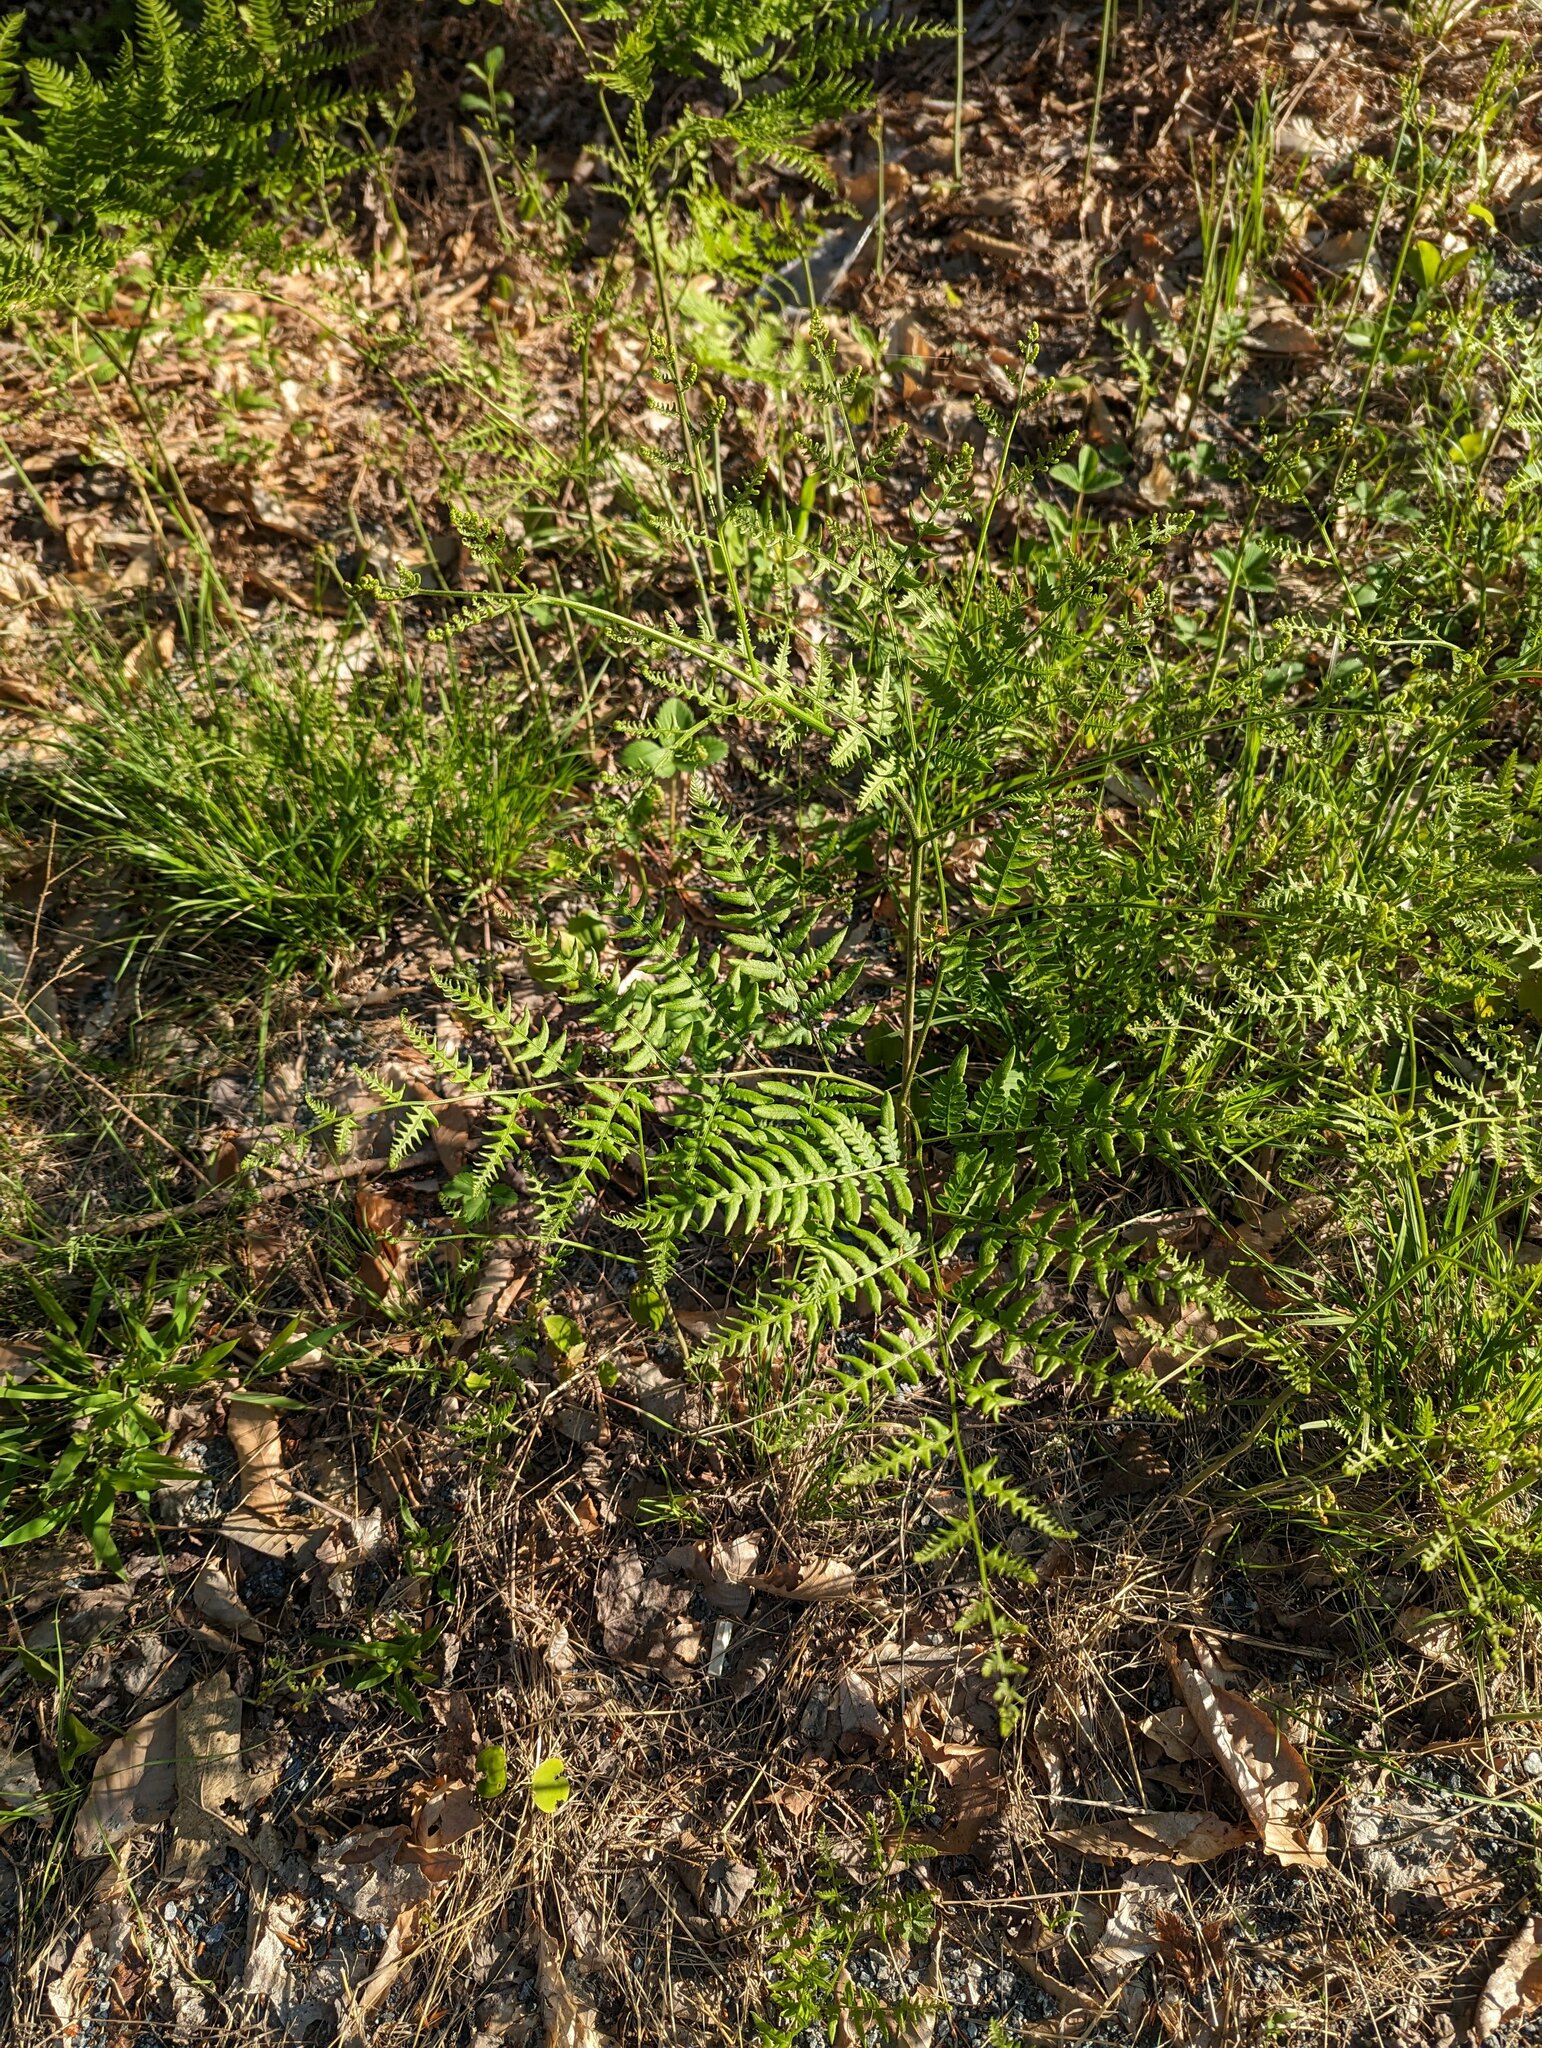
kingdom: Plantae
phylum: Tracheophyta
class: Polypodiopsida
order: Polypodiales
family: Dennstaedtiaceae
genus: Pteridium
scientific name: Pteridium aquilinum
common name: Bracken
